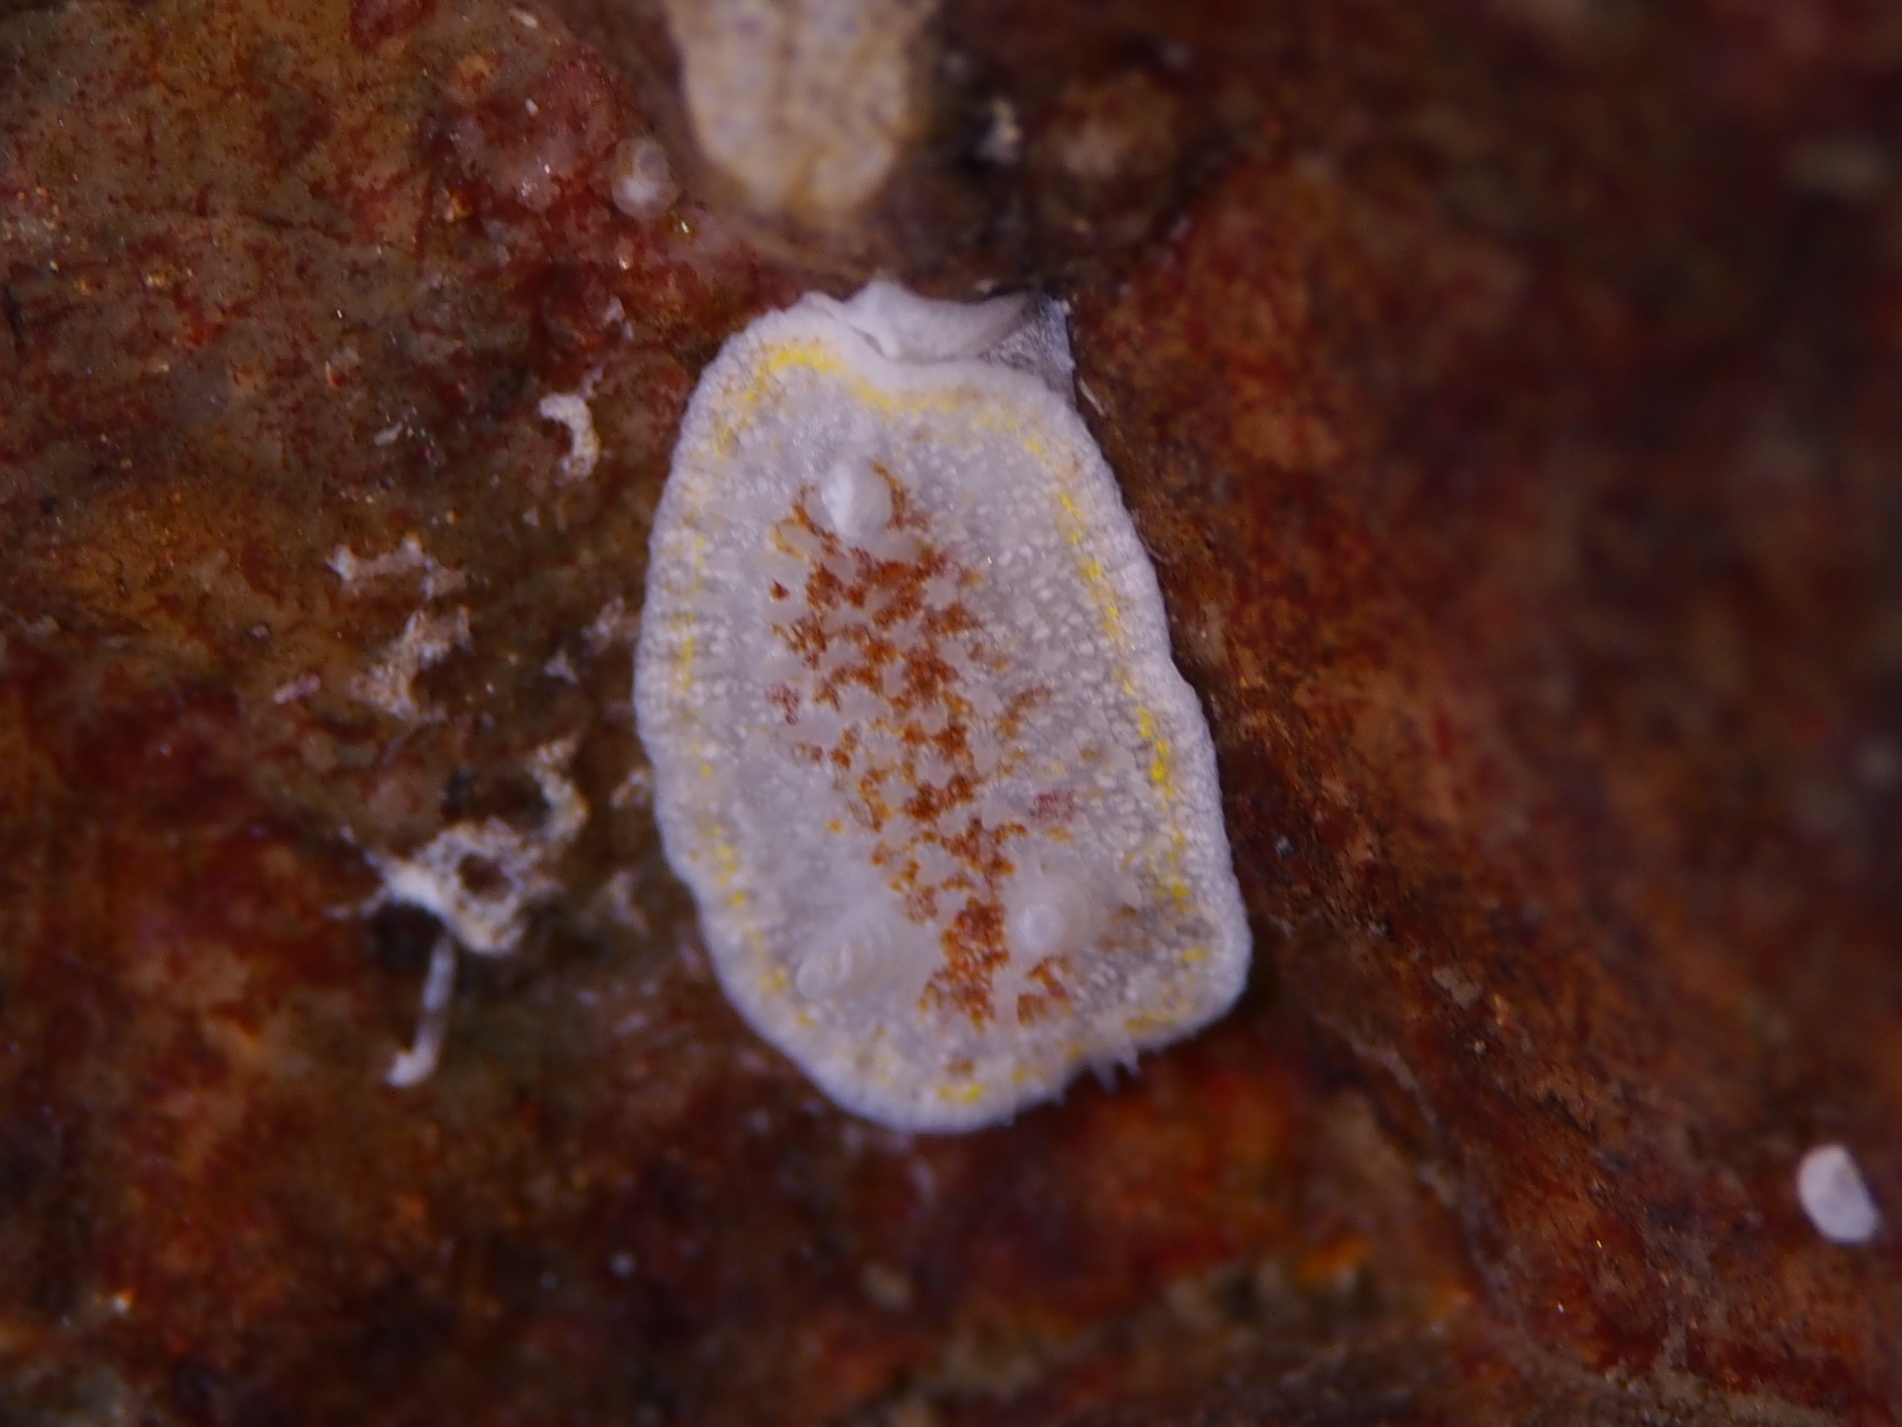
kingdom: Animalia
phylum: Mollusca
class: Gastropoda
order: Nudibranchia
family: Calycidorididae
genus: Diaphorodoris
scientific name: Diaphorodoris luteocincta
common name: Fried egg nudibranch
